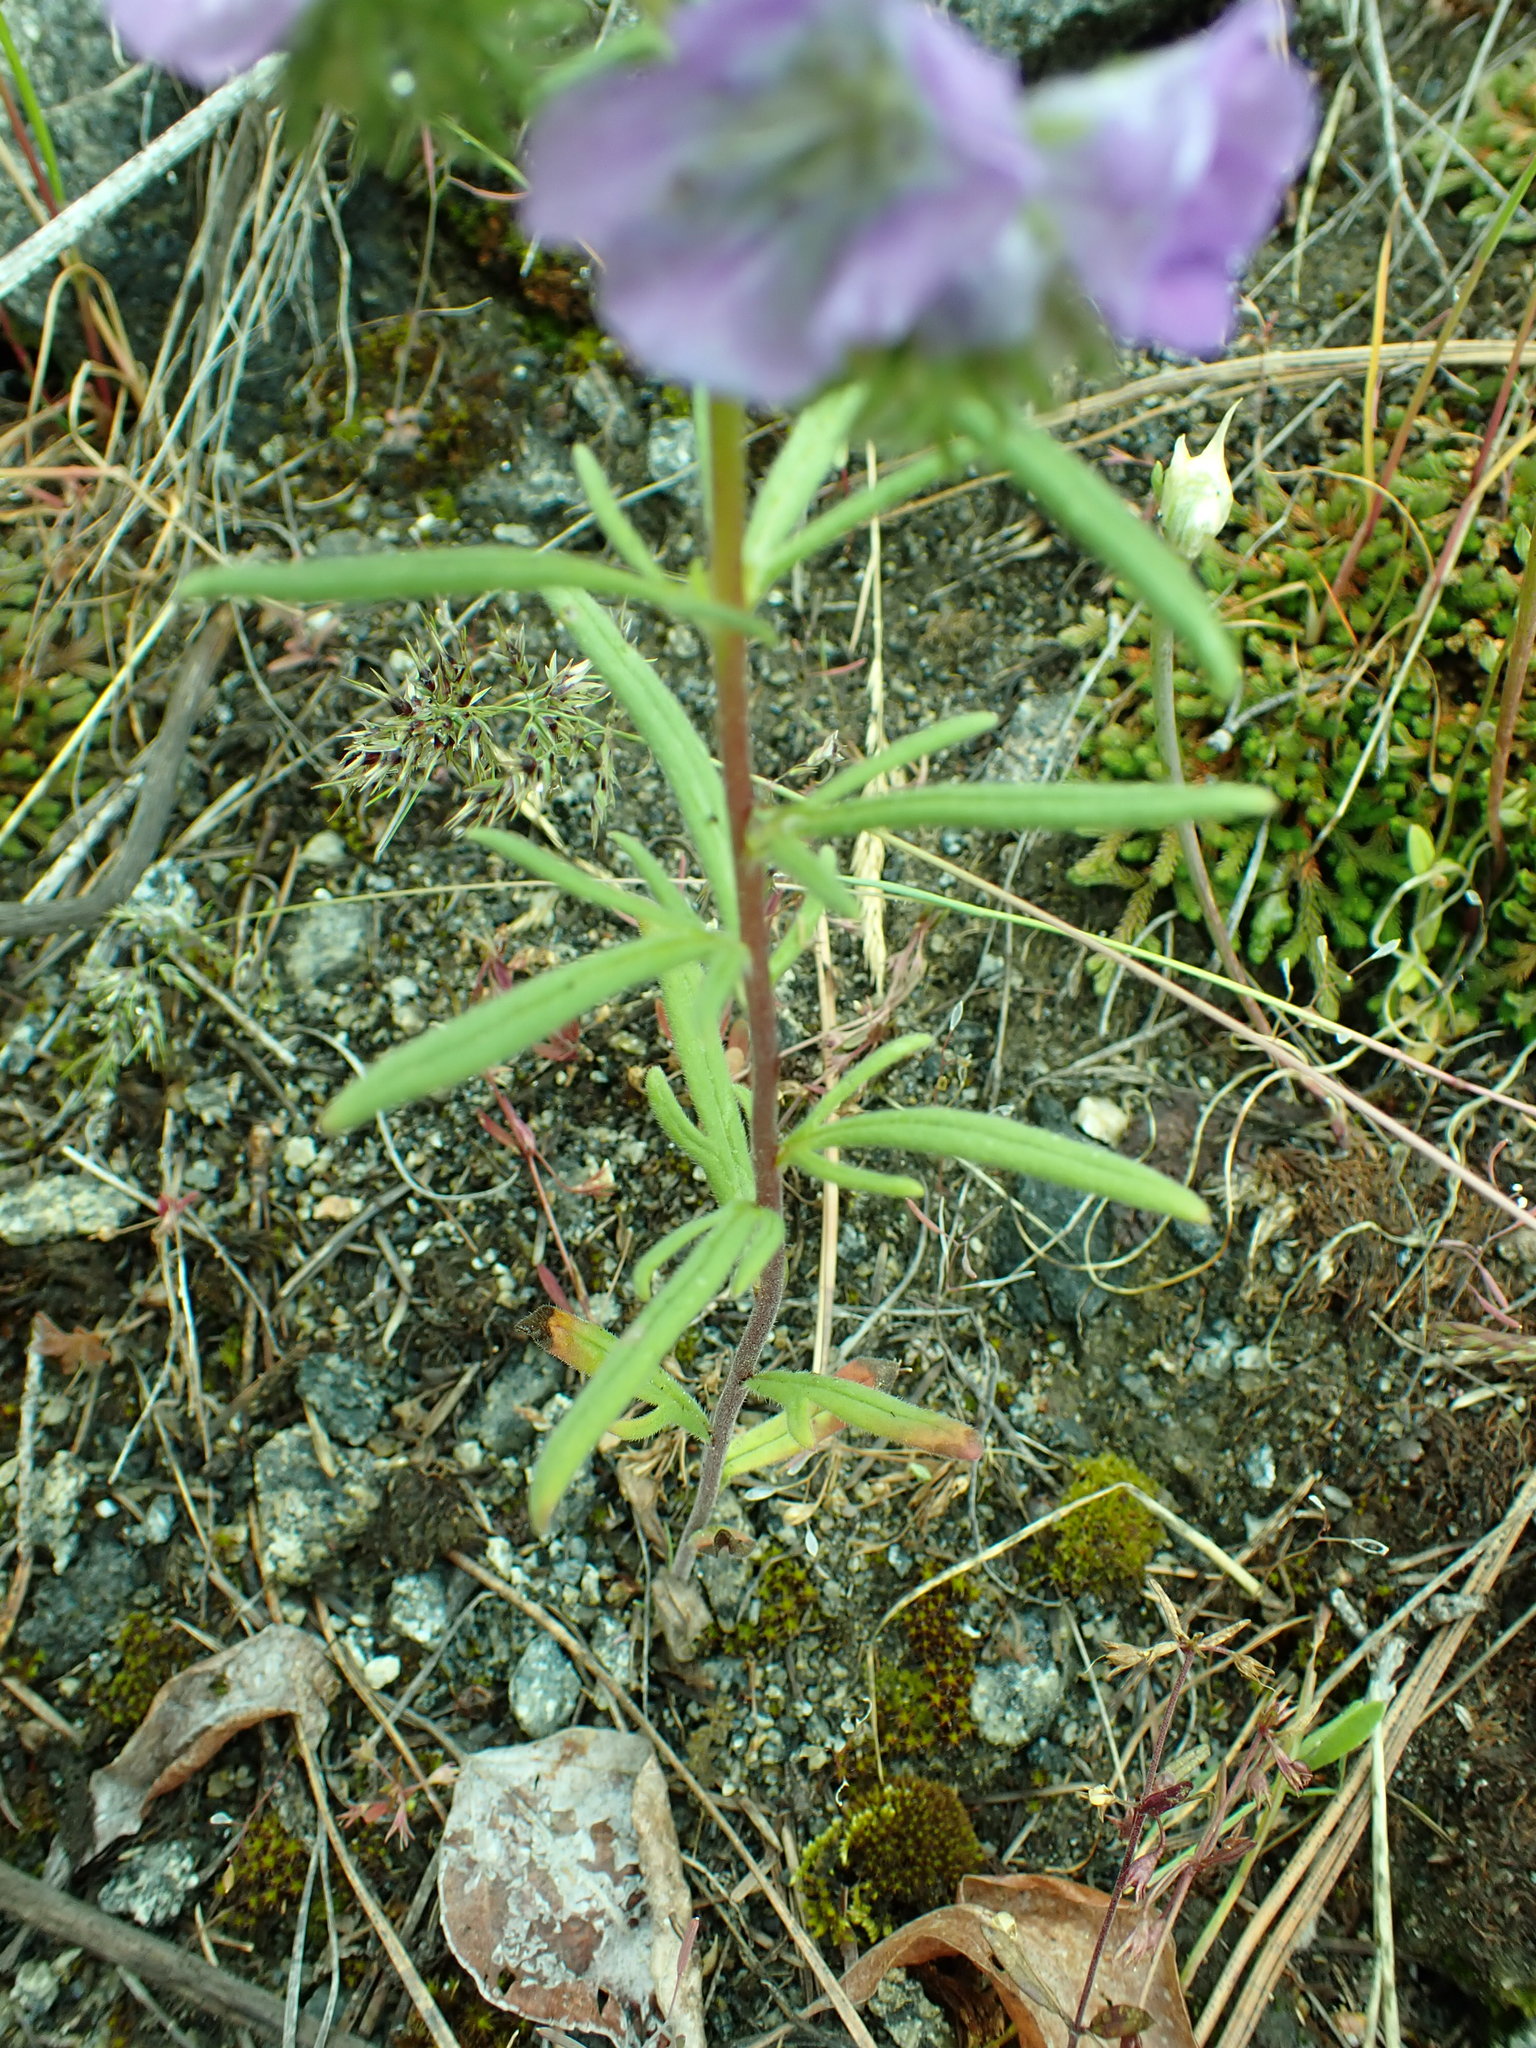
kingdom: Plantae
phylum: Tracheophyta
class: Magnoliopsida
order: Boraginales
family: Hydrophyllaceae
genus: Phacelia
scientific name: Phacelia linearis
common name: Linear-leaved phacelia
